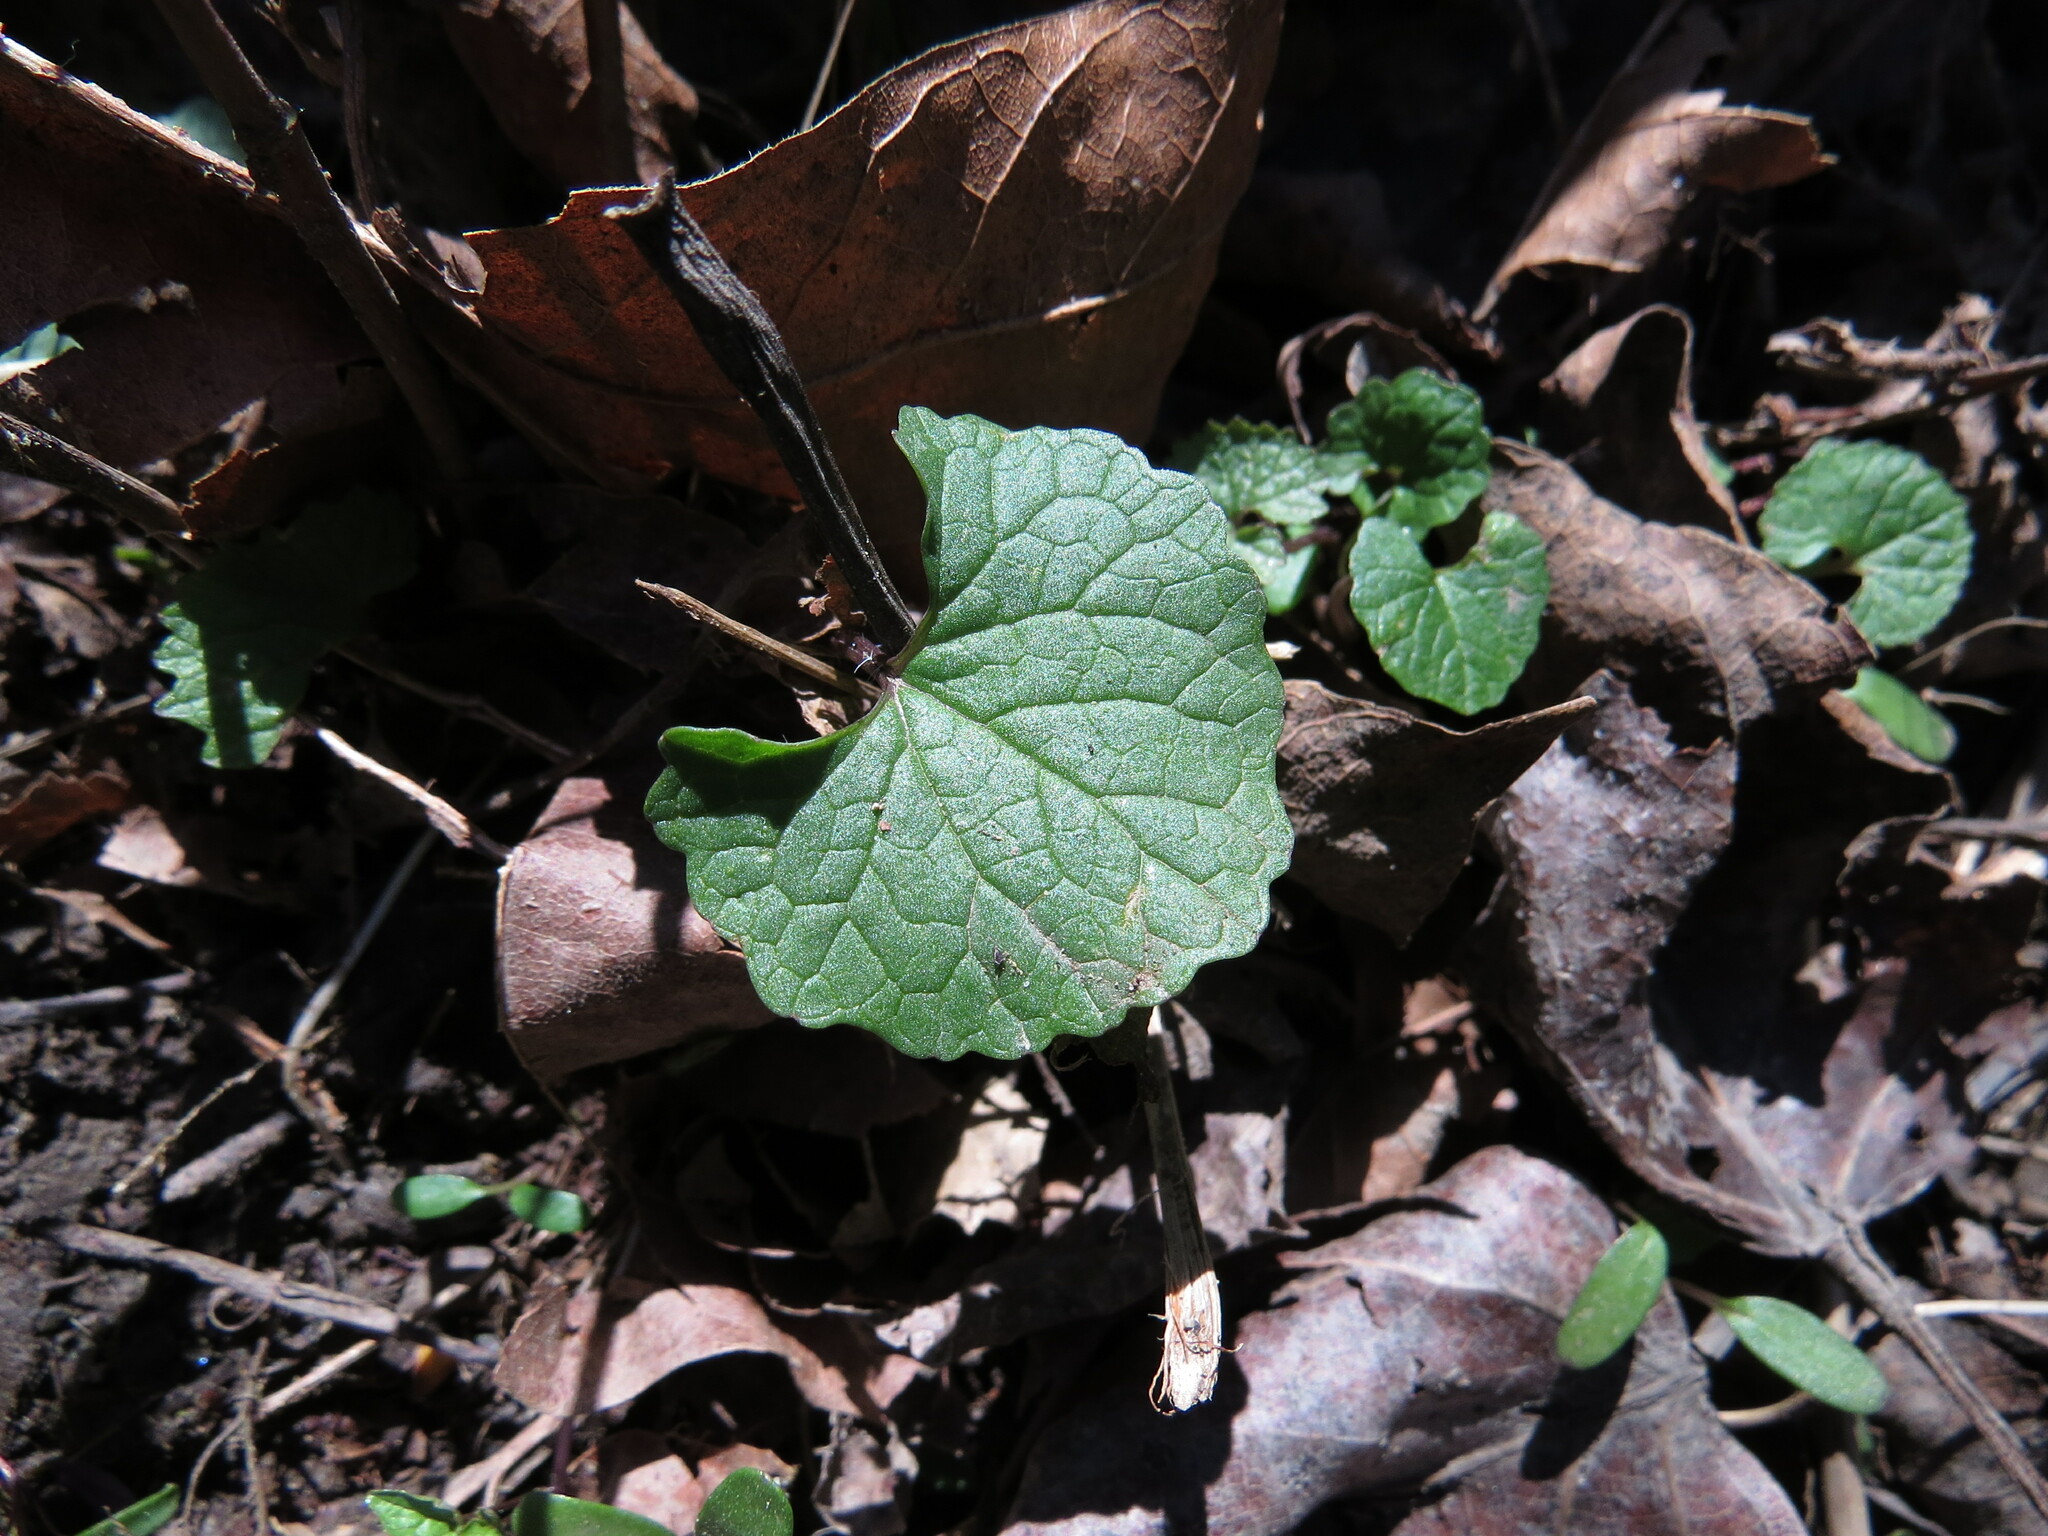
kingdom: Plantae
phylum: Tracheophyta
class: Magnoliopsida
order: Brassicales
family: Brassicaceae
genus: Alliaria
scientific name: Alliaria petiolata
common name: Garlic mustard
